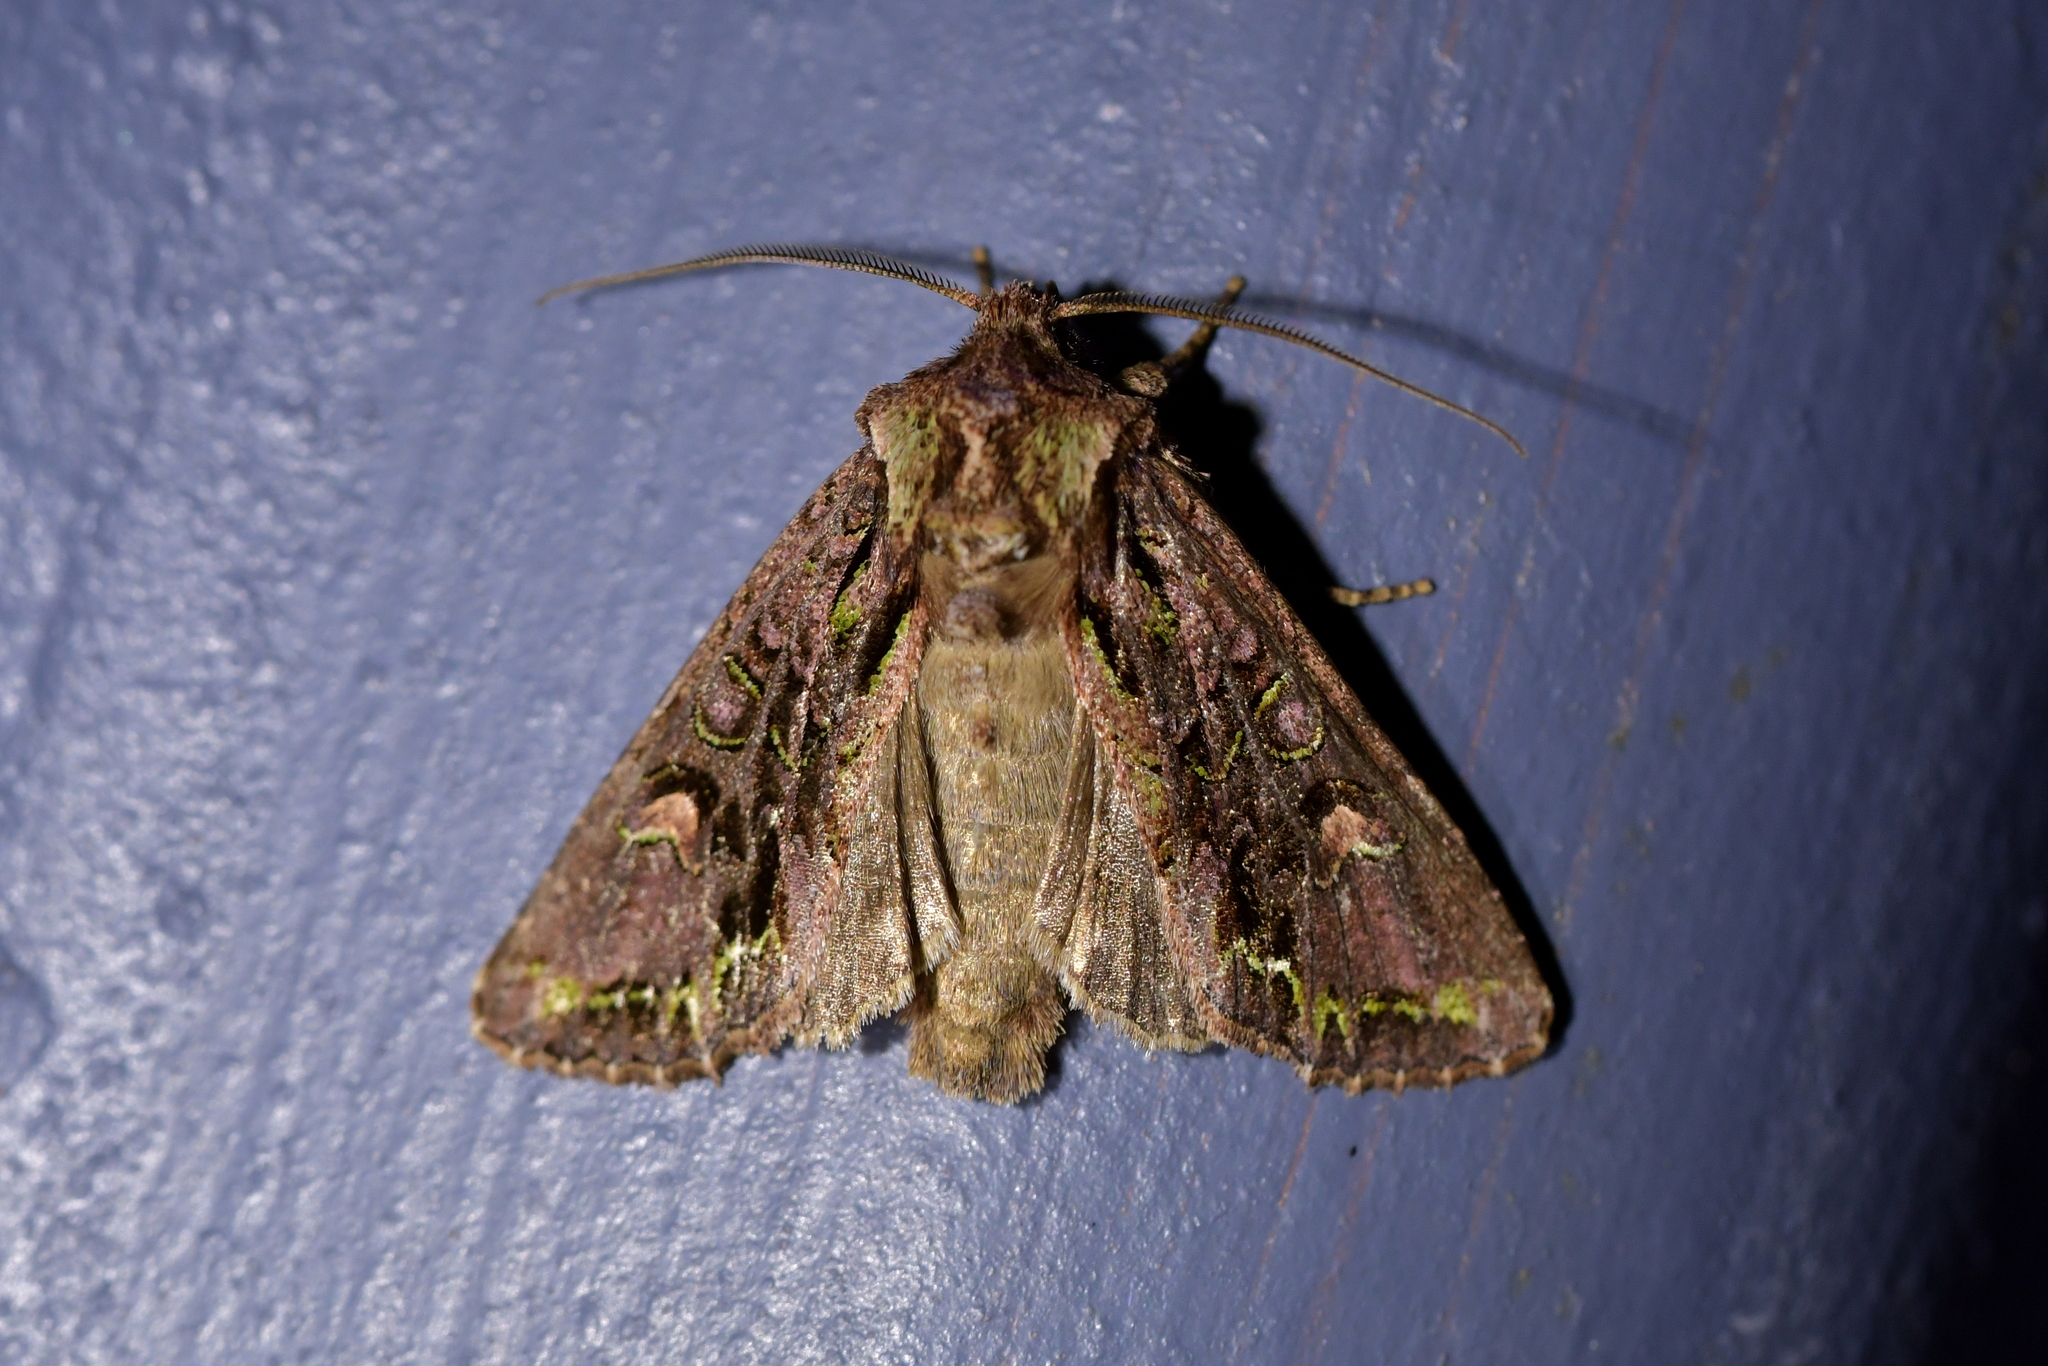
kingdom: Animalia
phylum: Arthropoda
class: Insecta
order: Lepidoptera
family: Noctuidae
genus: Ichneutica
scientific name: Ichneutica insignis
